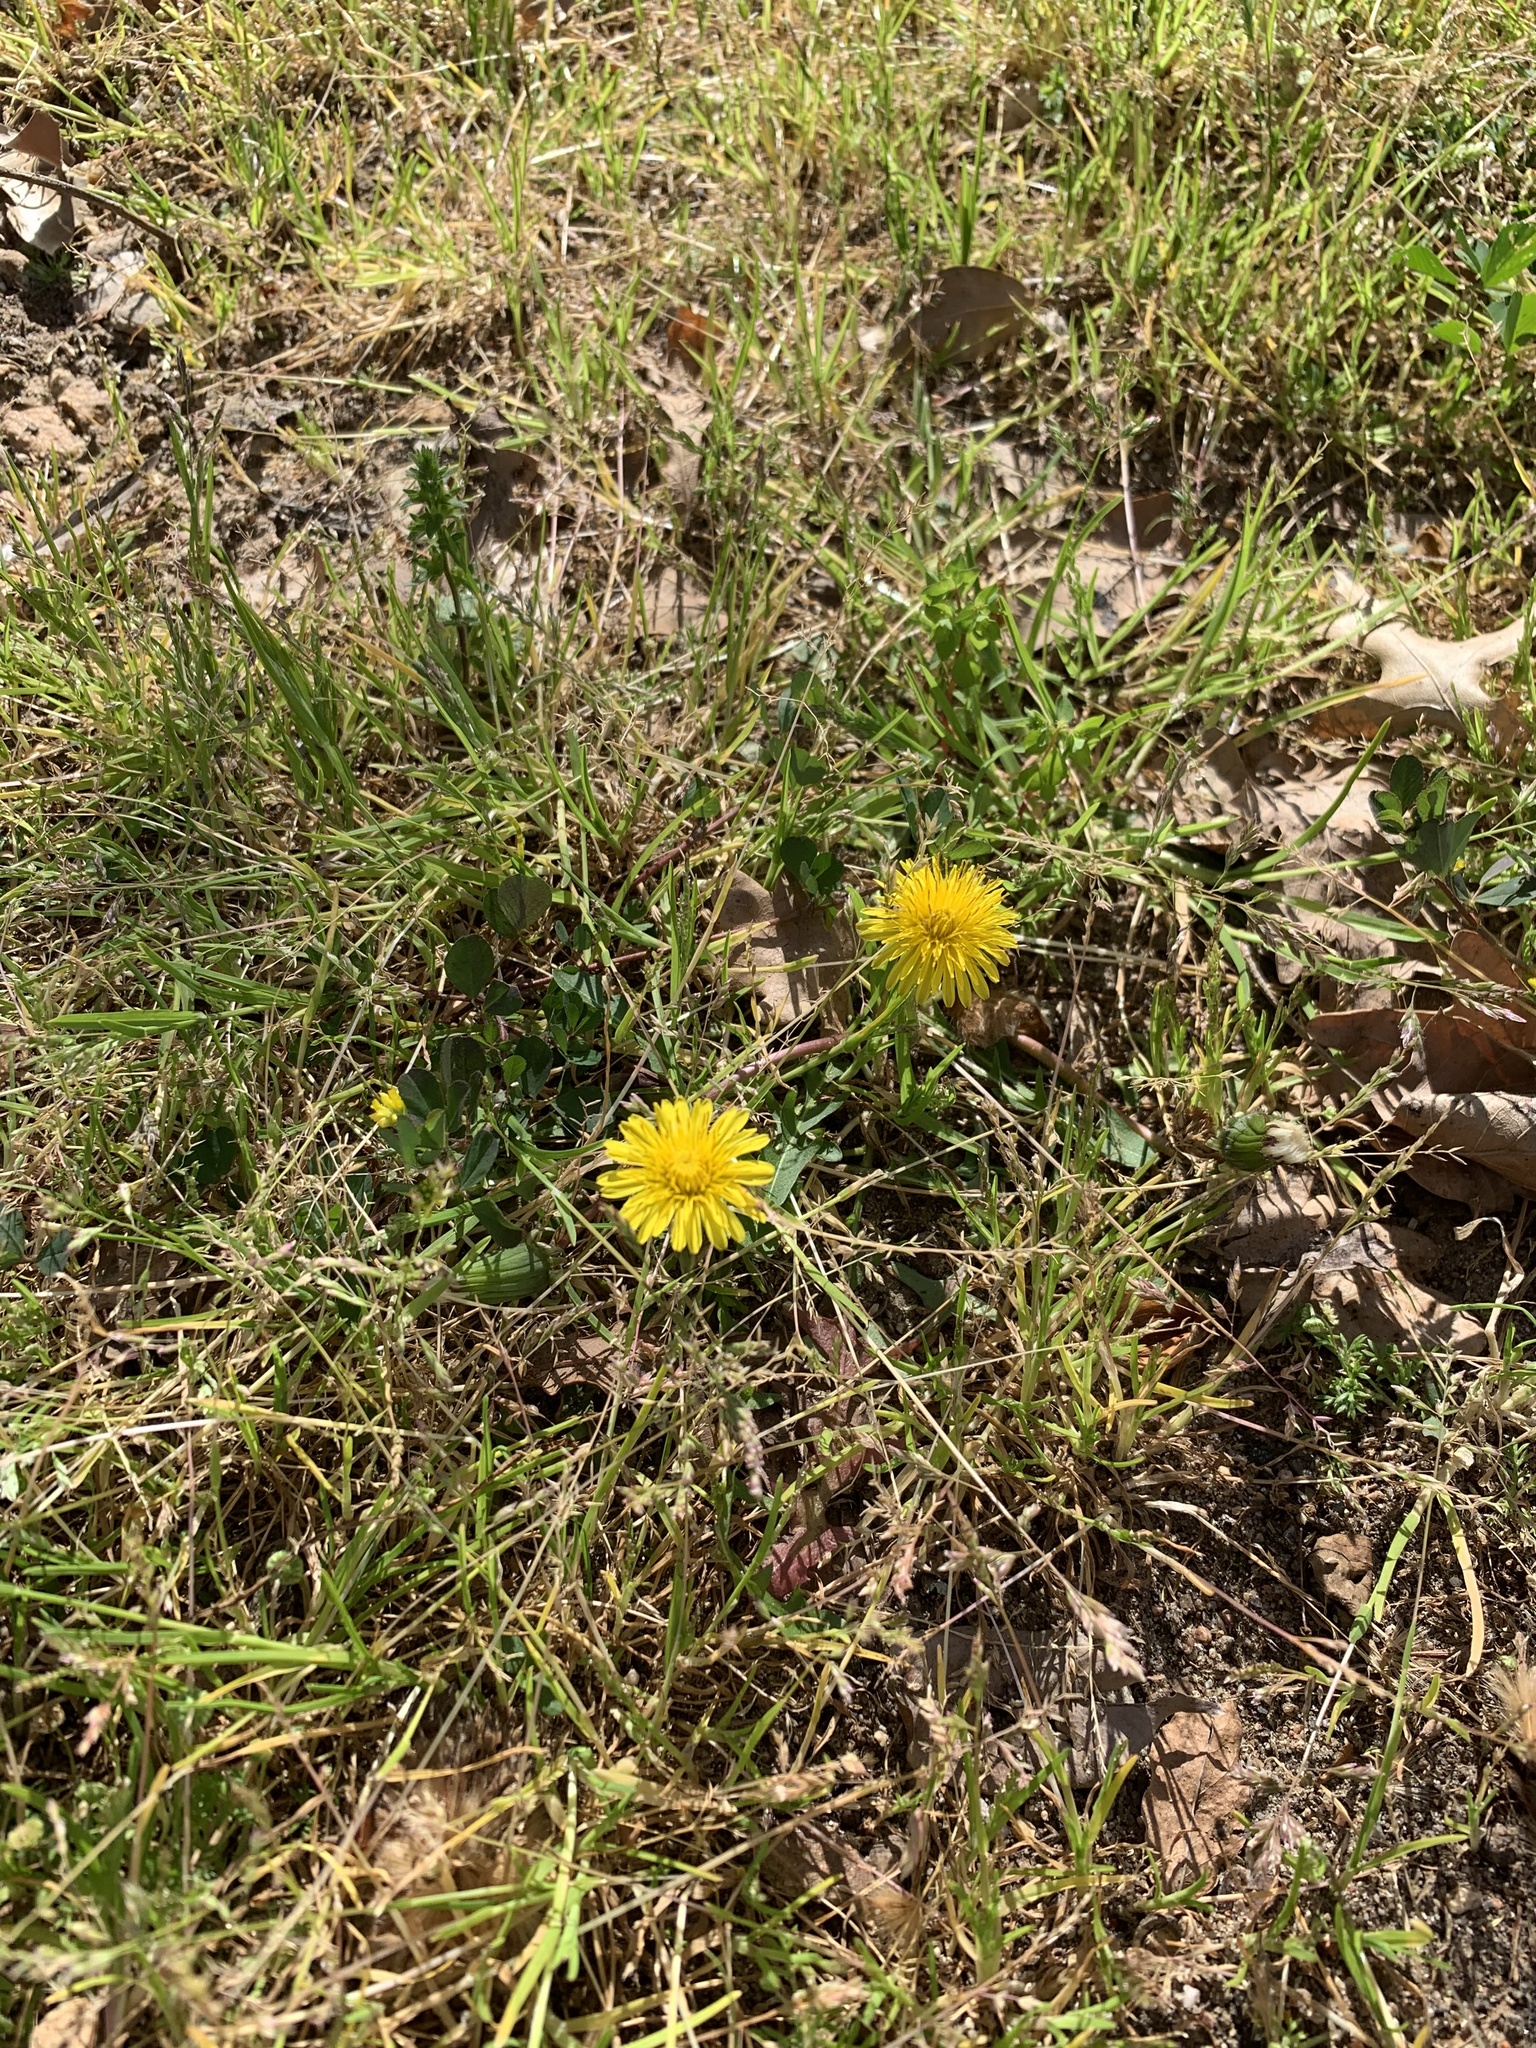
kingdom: Plantae
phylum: Tracheophyta
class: Magnoliopsida
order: Asterales
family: Asteraceae
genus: Taraxacum
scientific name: Taraxacum officinale
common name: Common dandelion
